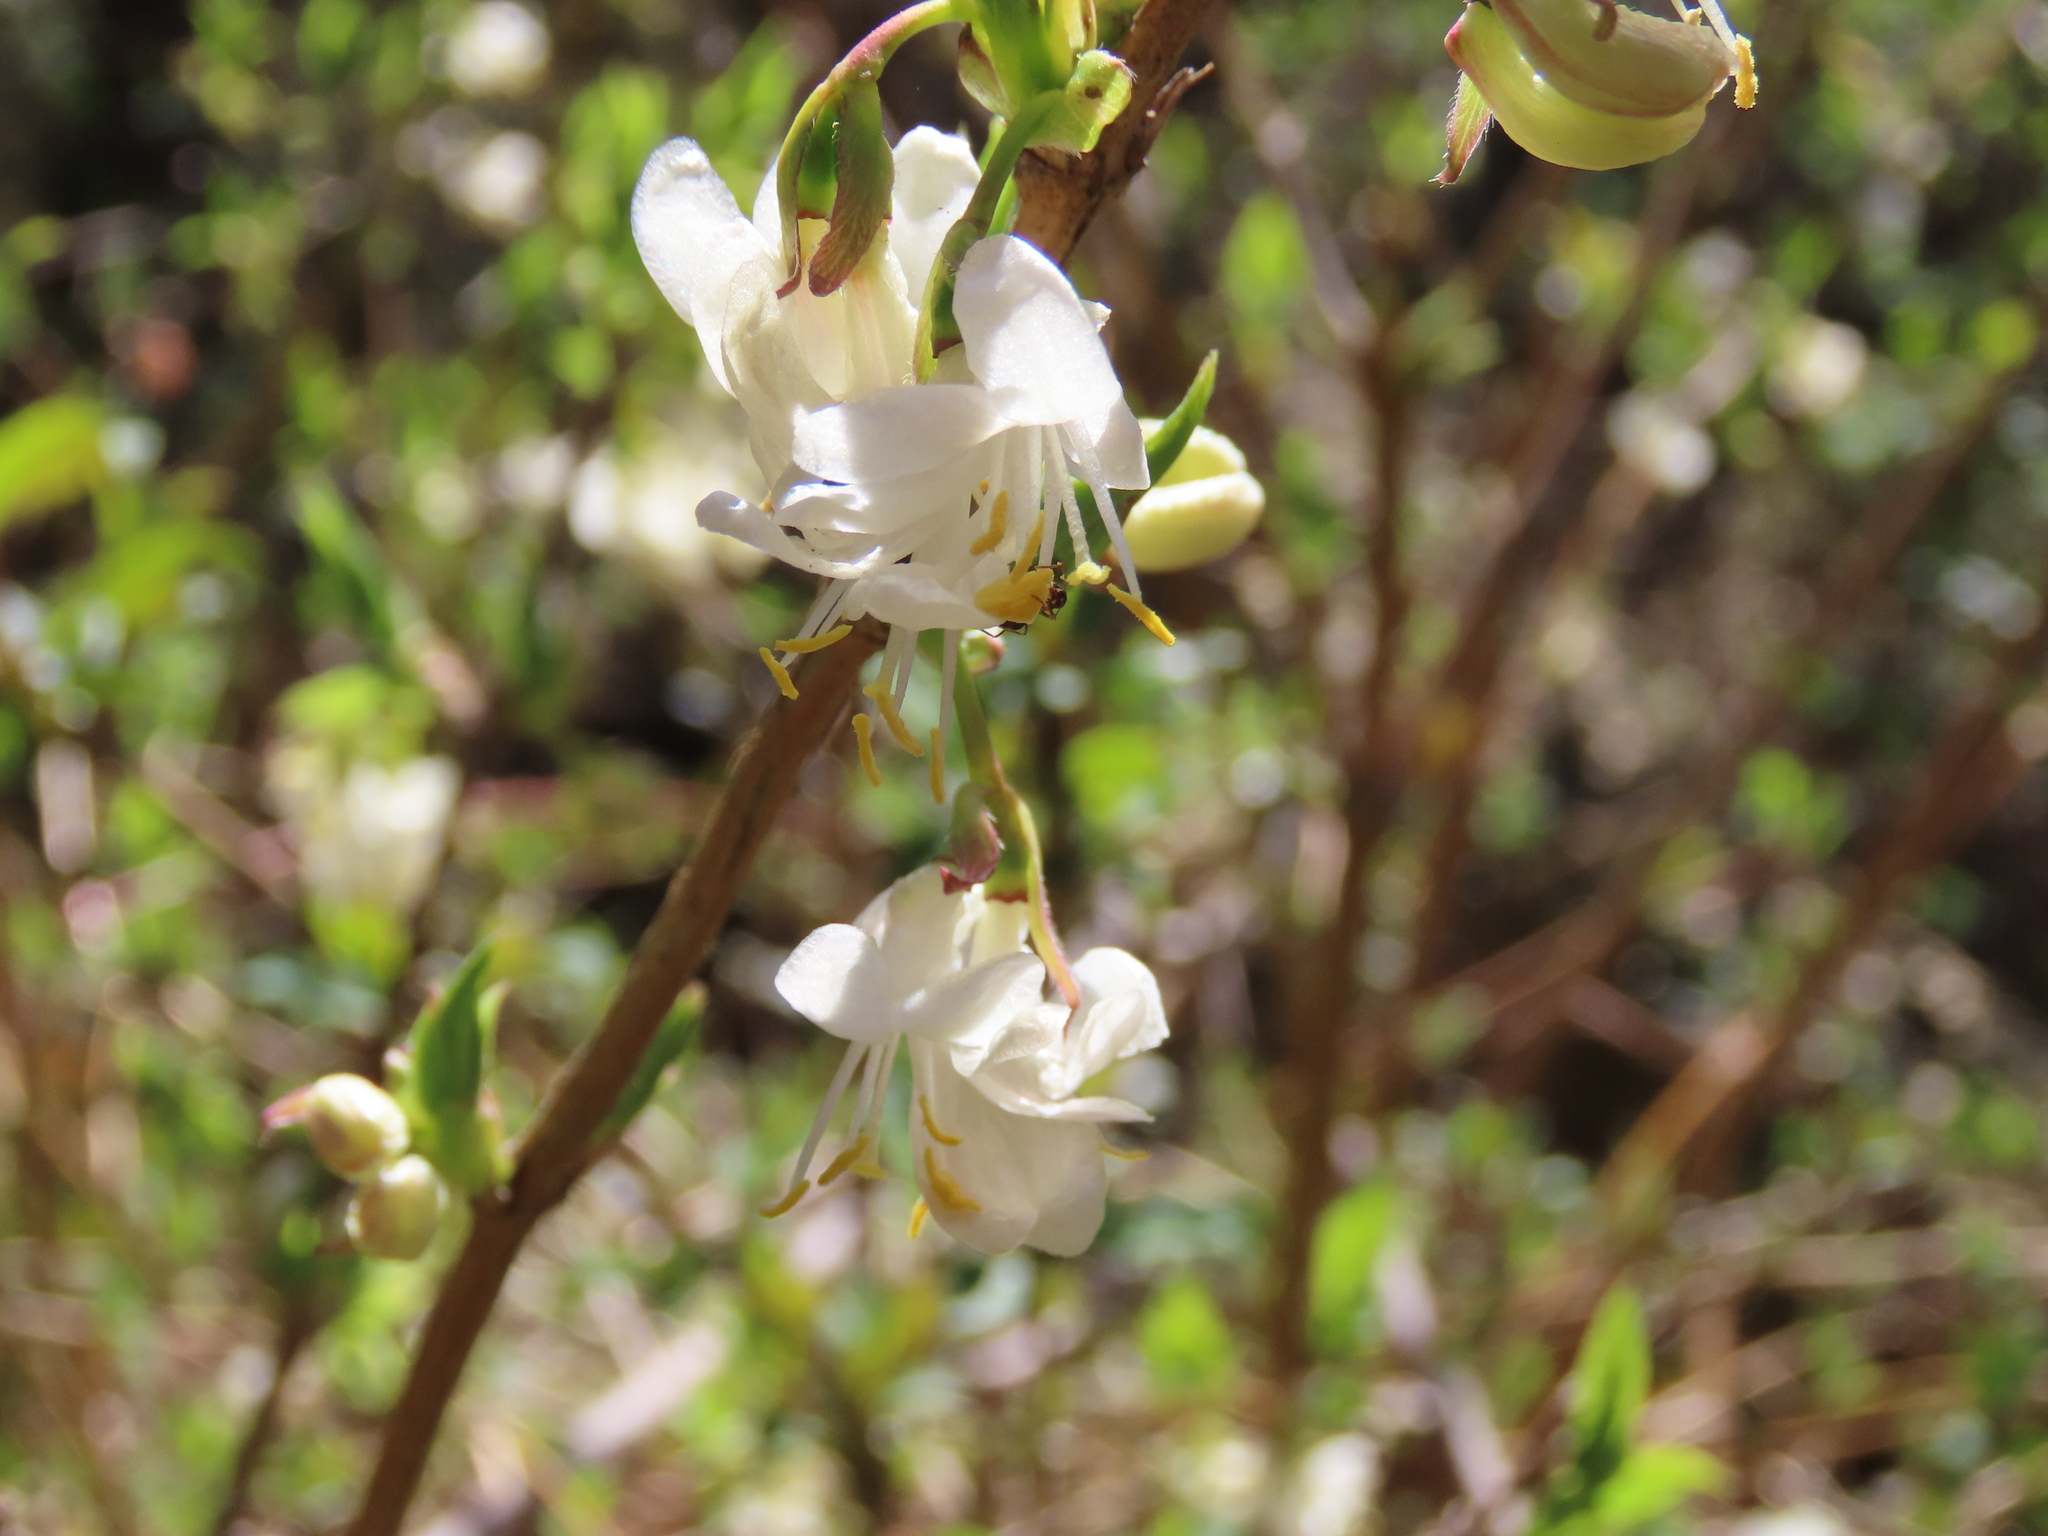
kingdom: Plantae
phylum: Tracheophyta
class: Magnoliopsida
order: Dipsacales
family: Caprifoliaceae
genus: Lonicera
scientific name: Lonicera fragrantissima
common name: Fragrant honeysuckle
